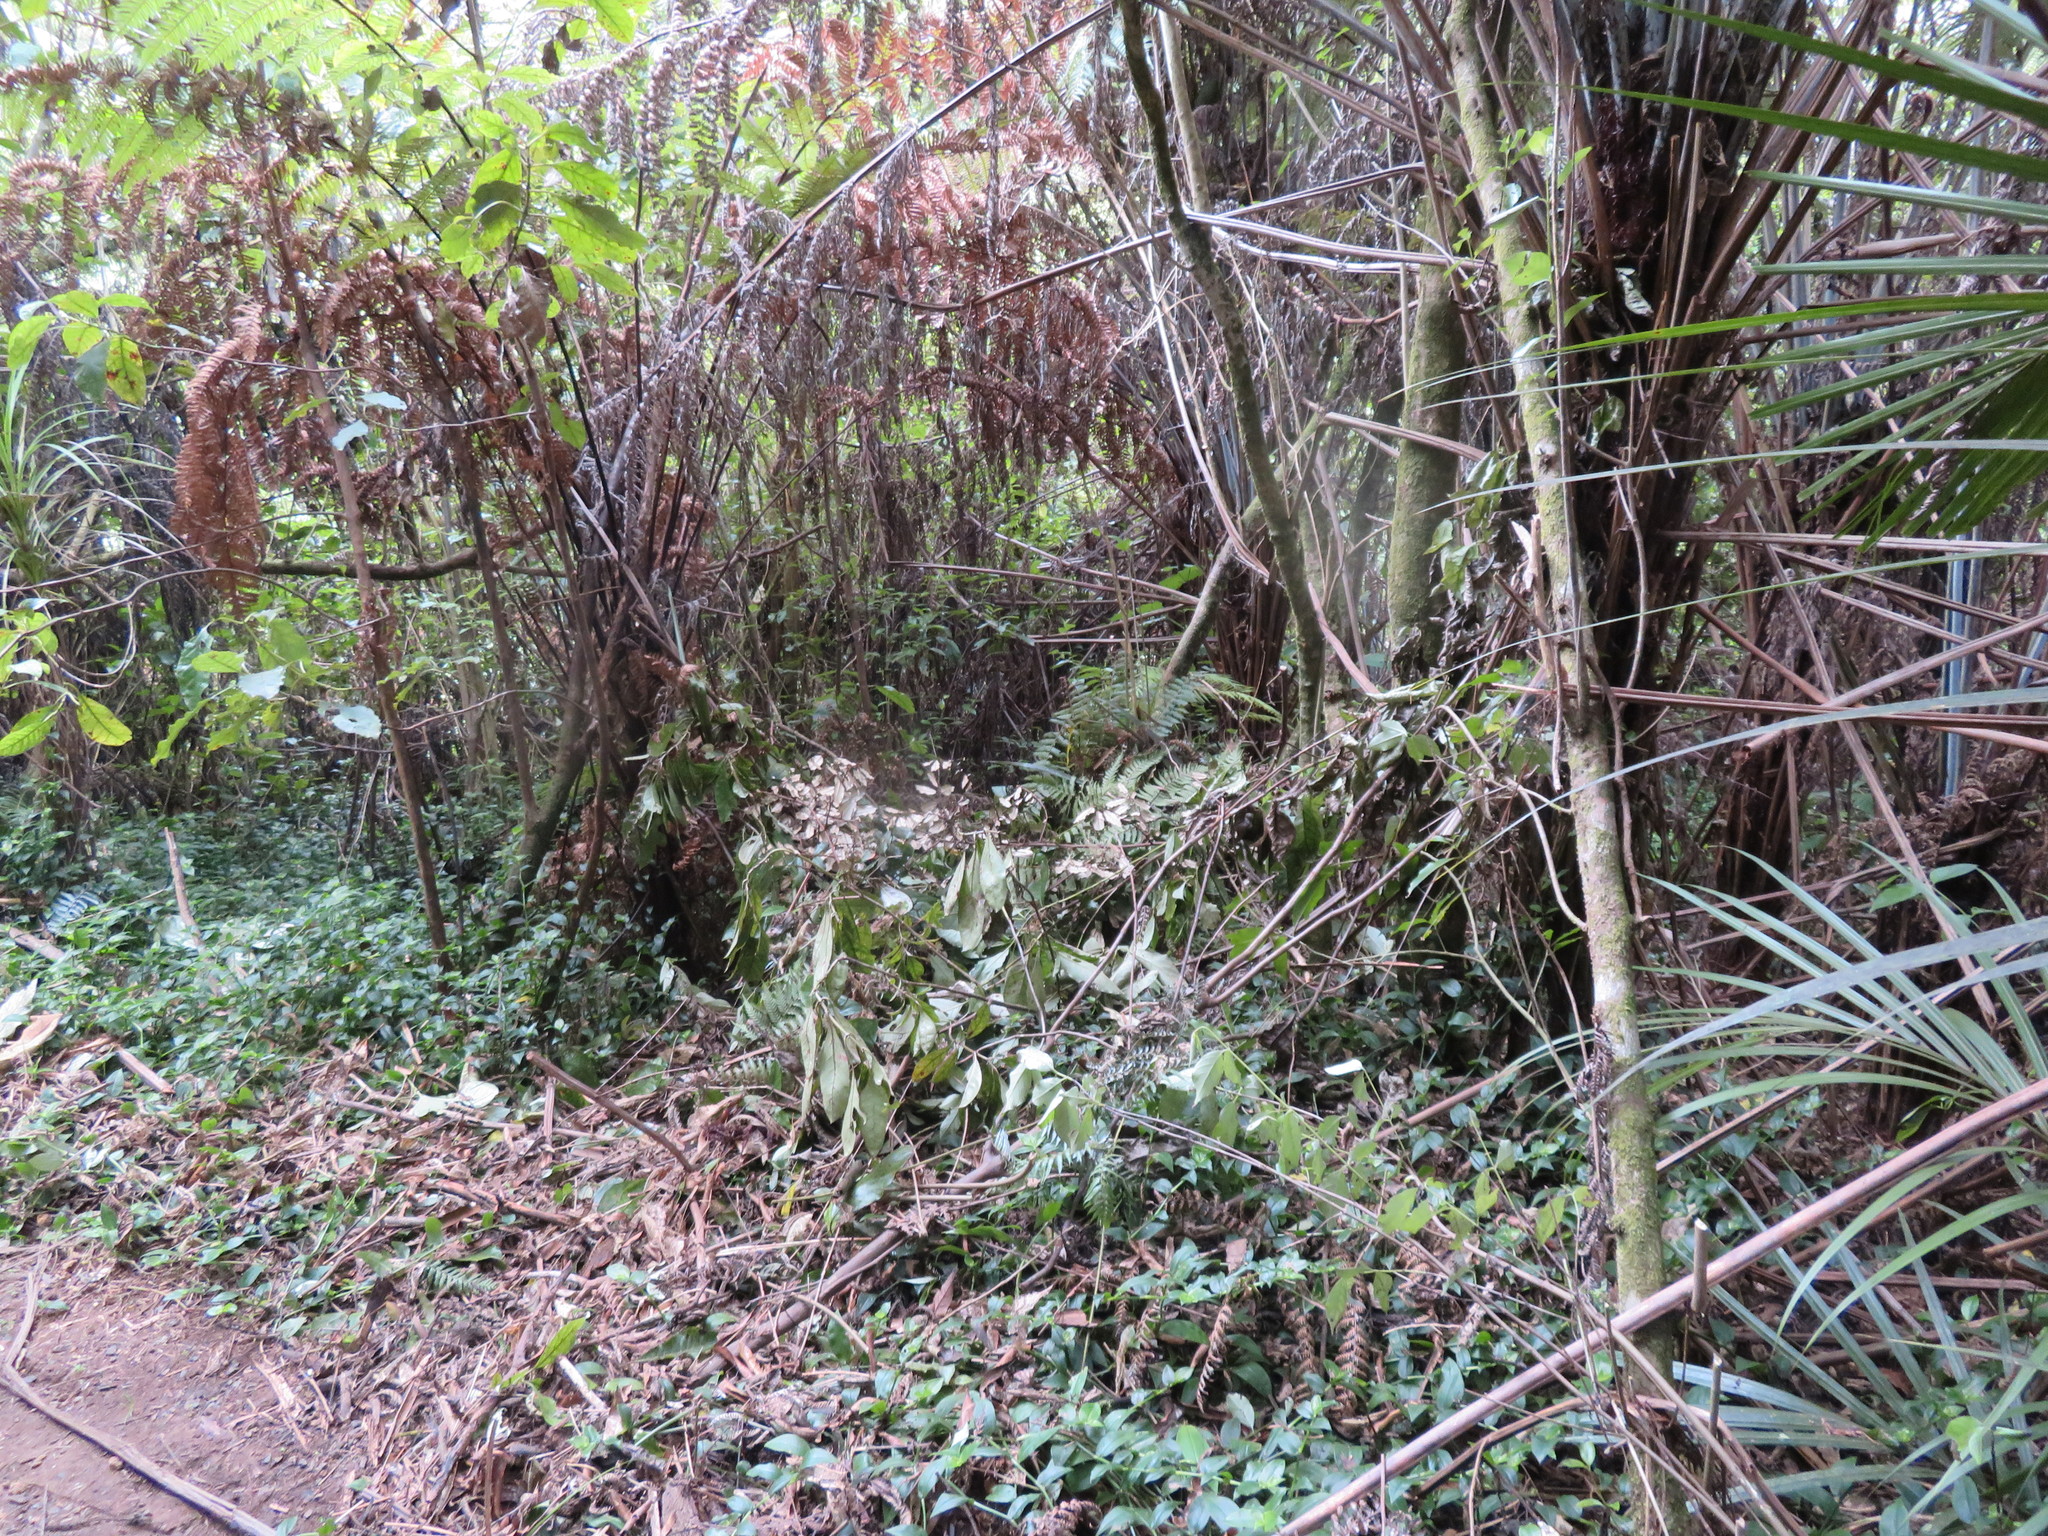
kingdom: Plantae
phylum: Tracheophyta
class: Liliopsida
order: Commelinales
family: Commelinaceae
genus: Tradescantia
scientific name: Tradescantia fluminensis
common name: Wandering-jew
